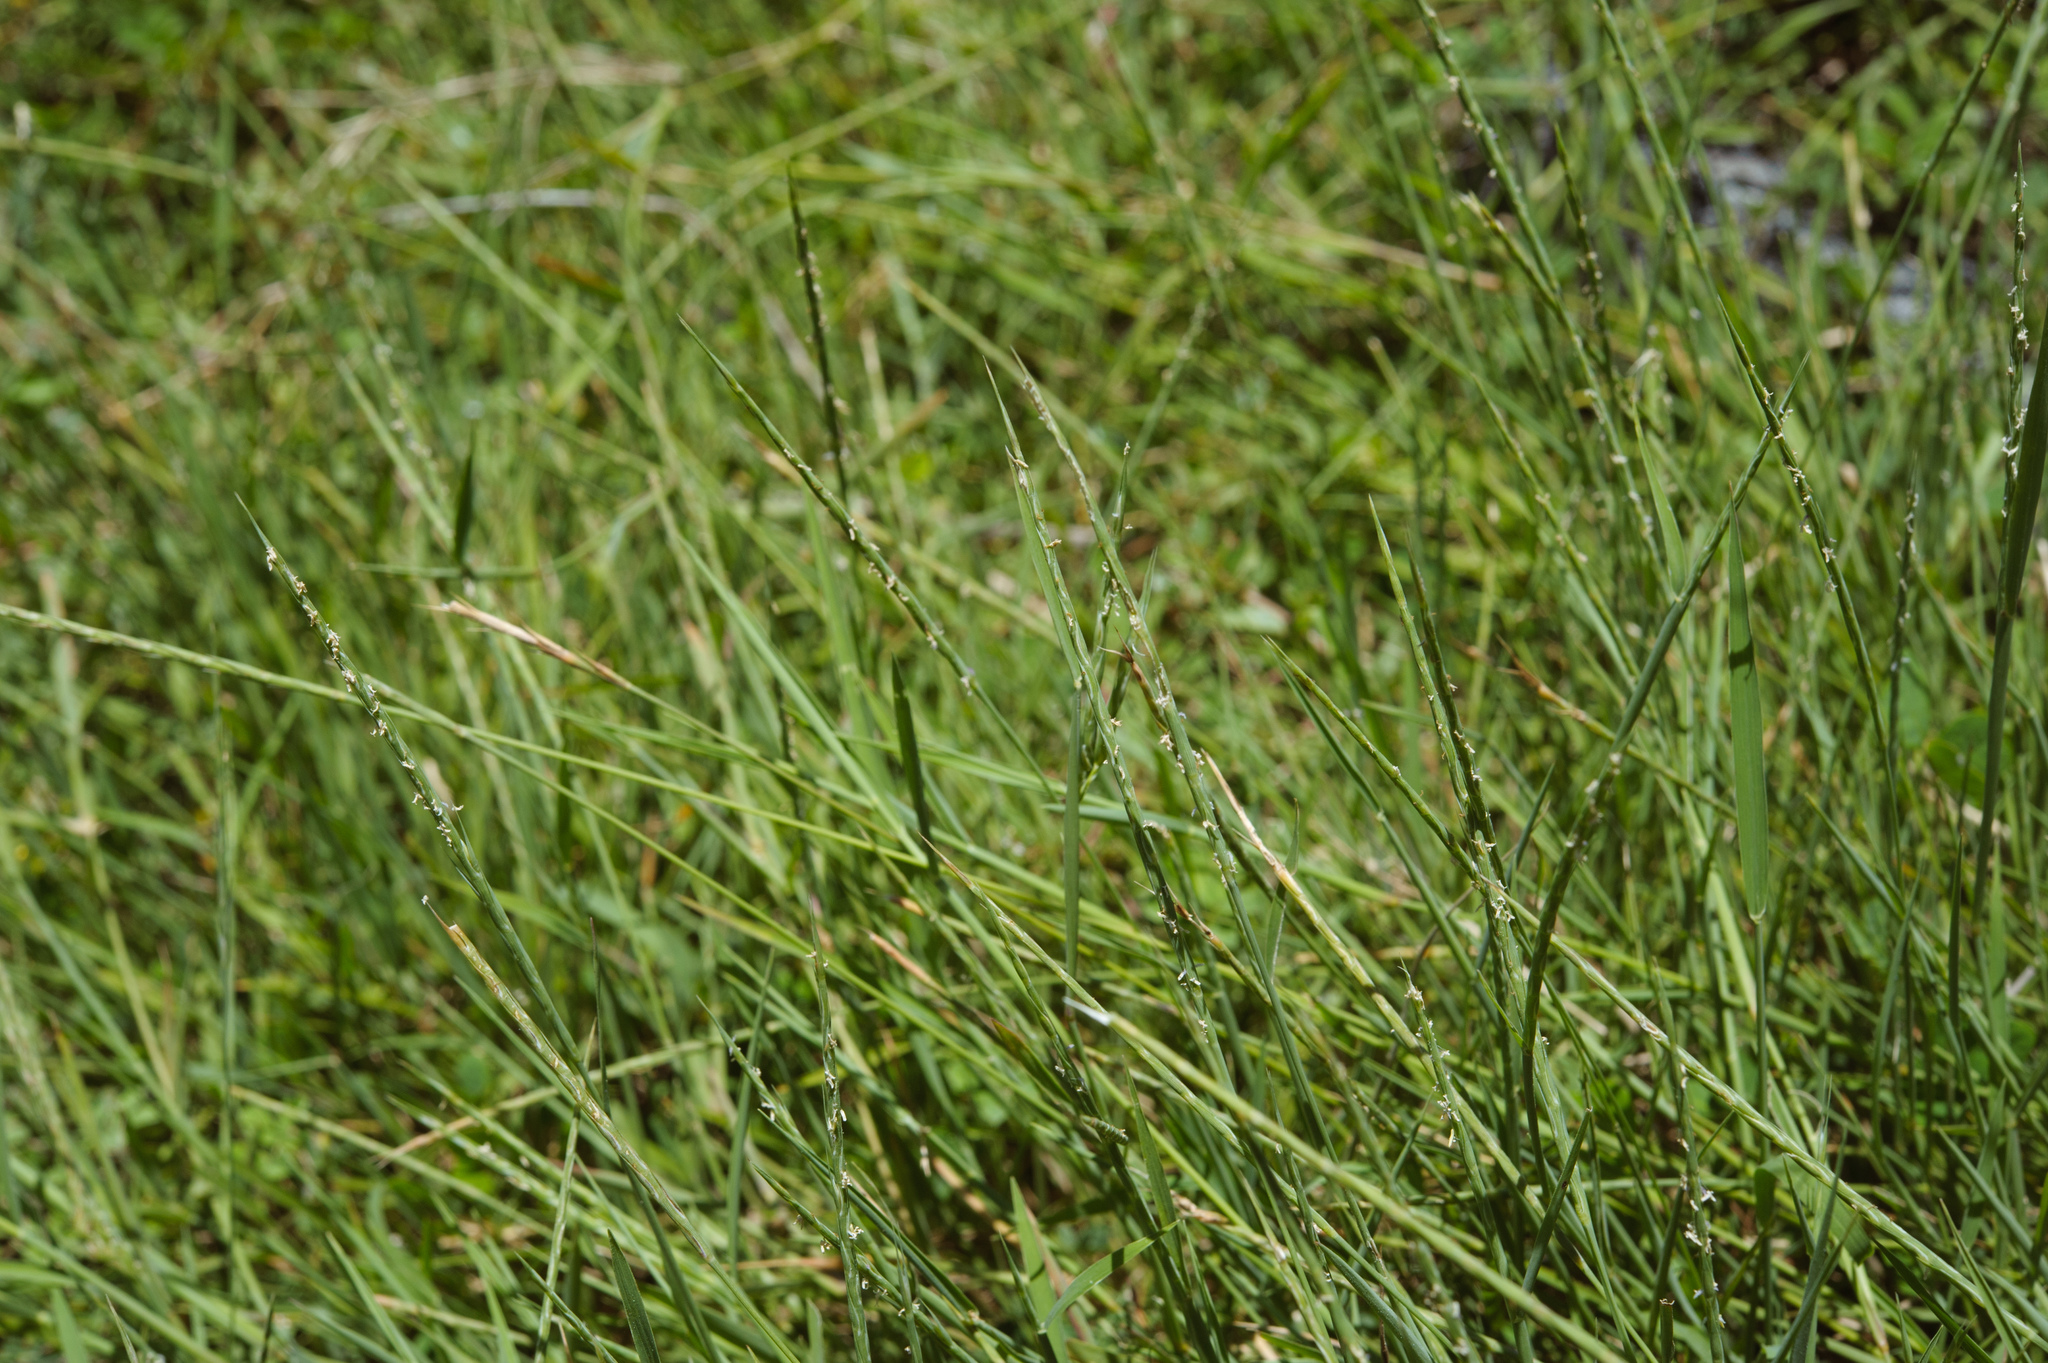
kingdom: Plantae
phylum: Tracheophyta
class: Liliopsida
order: Poales
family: Poaceae
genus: Lepturus
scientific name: Lepturus repens
